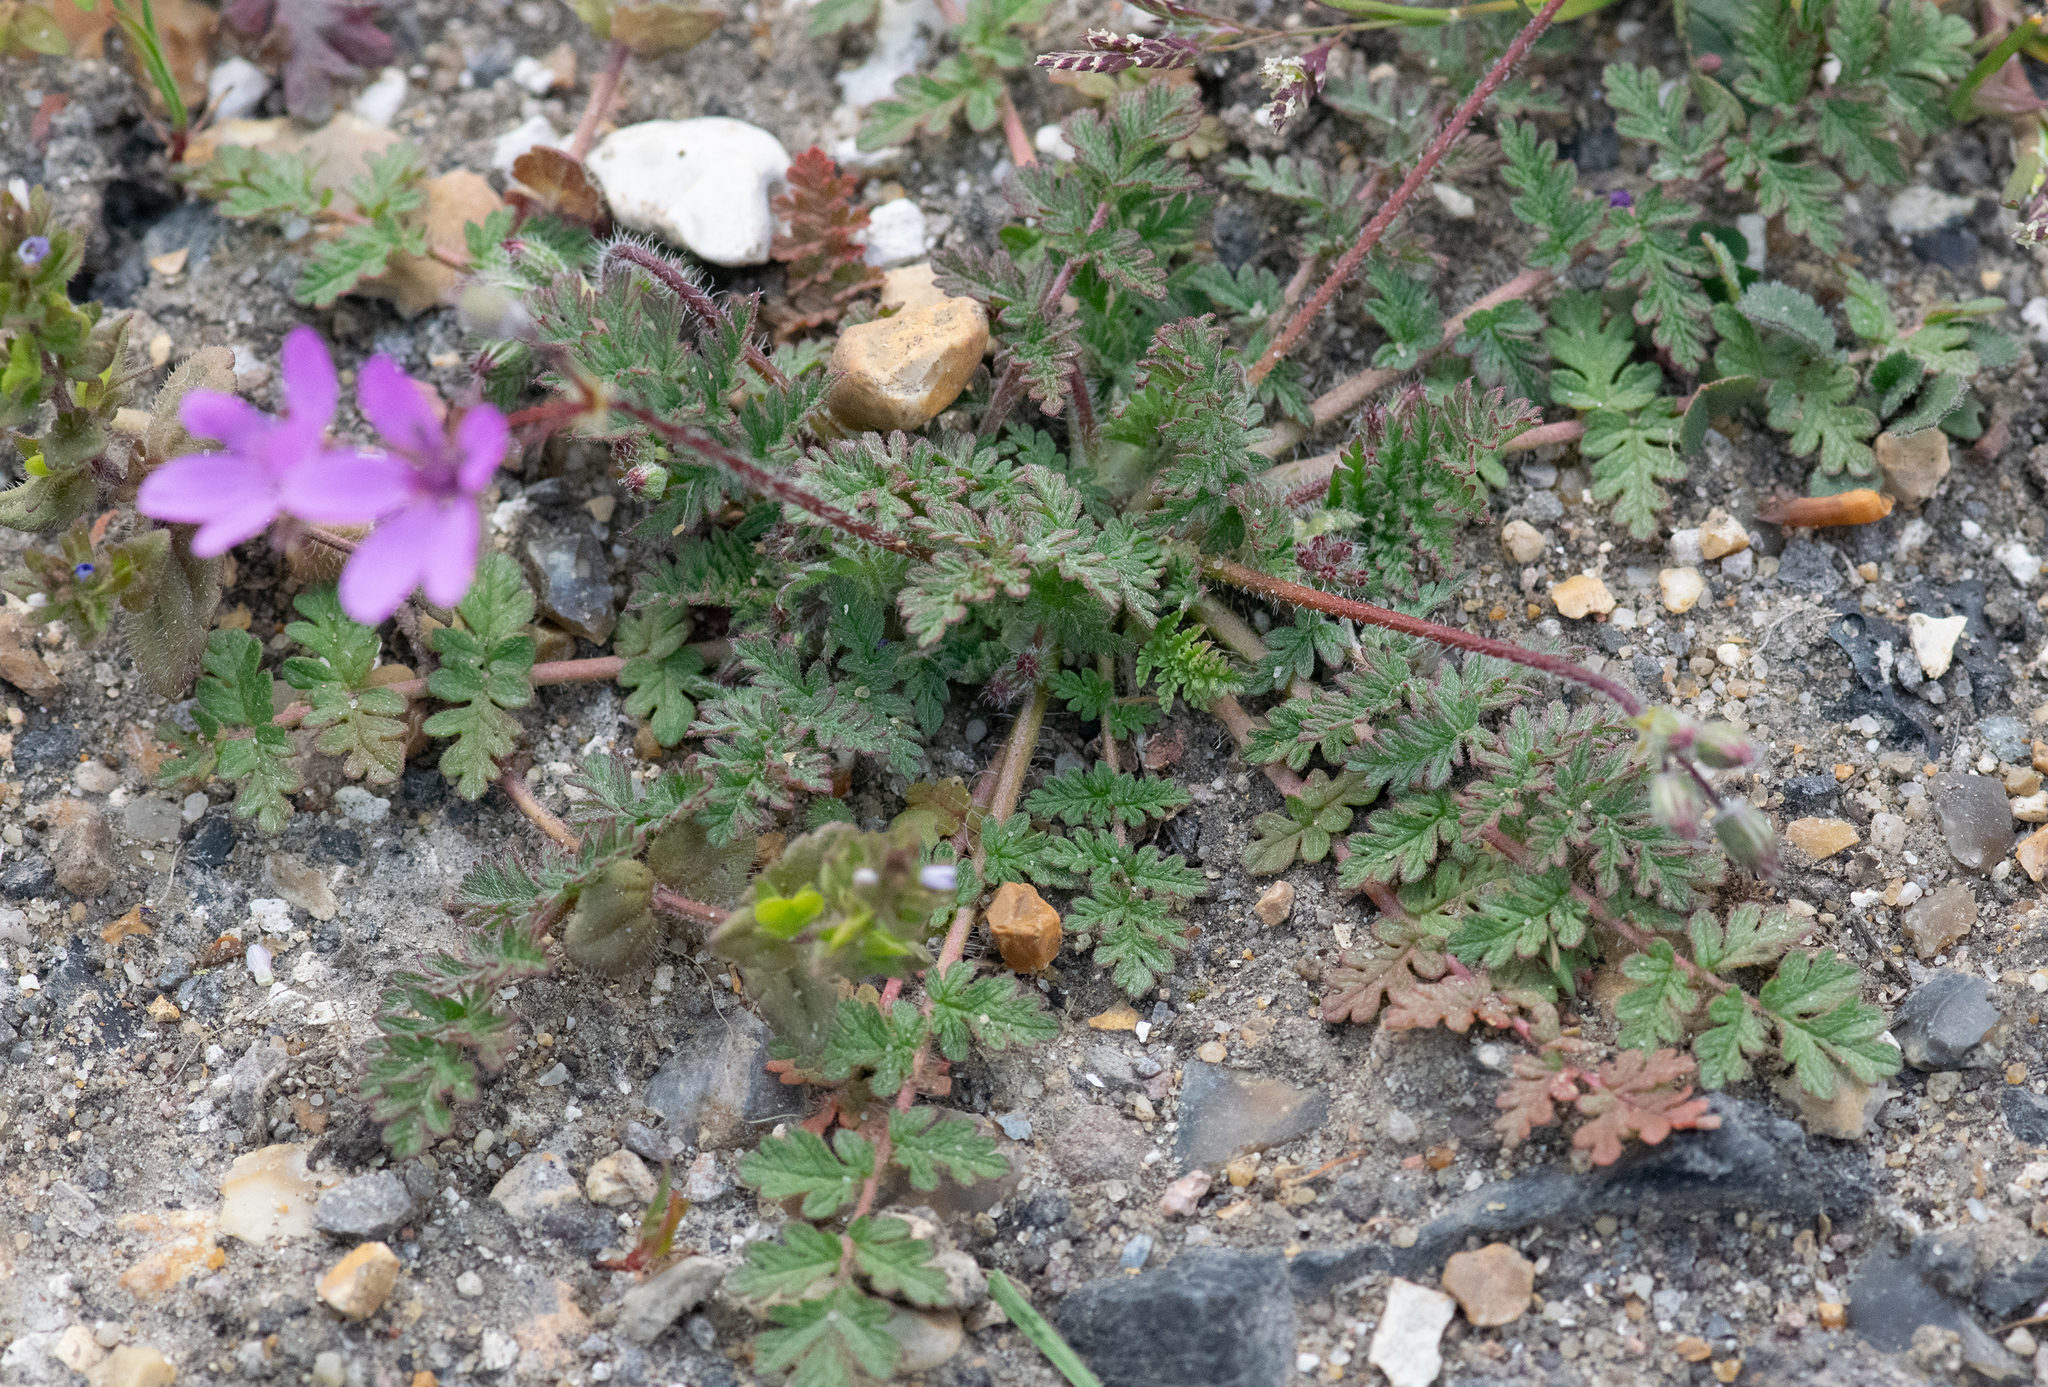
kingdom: Plantae
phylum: Tracheophyta
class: Magnoliopsida
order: Geraniales
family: Geraniaceae
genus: Erodium
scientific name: Erodium cicutarium
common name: Common stork's-bill
